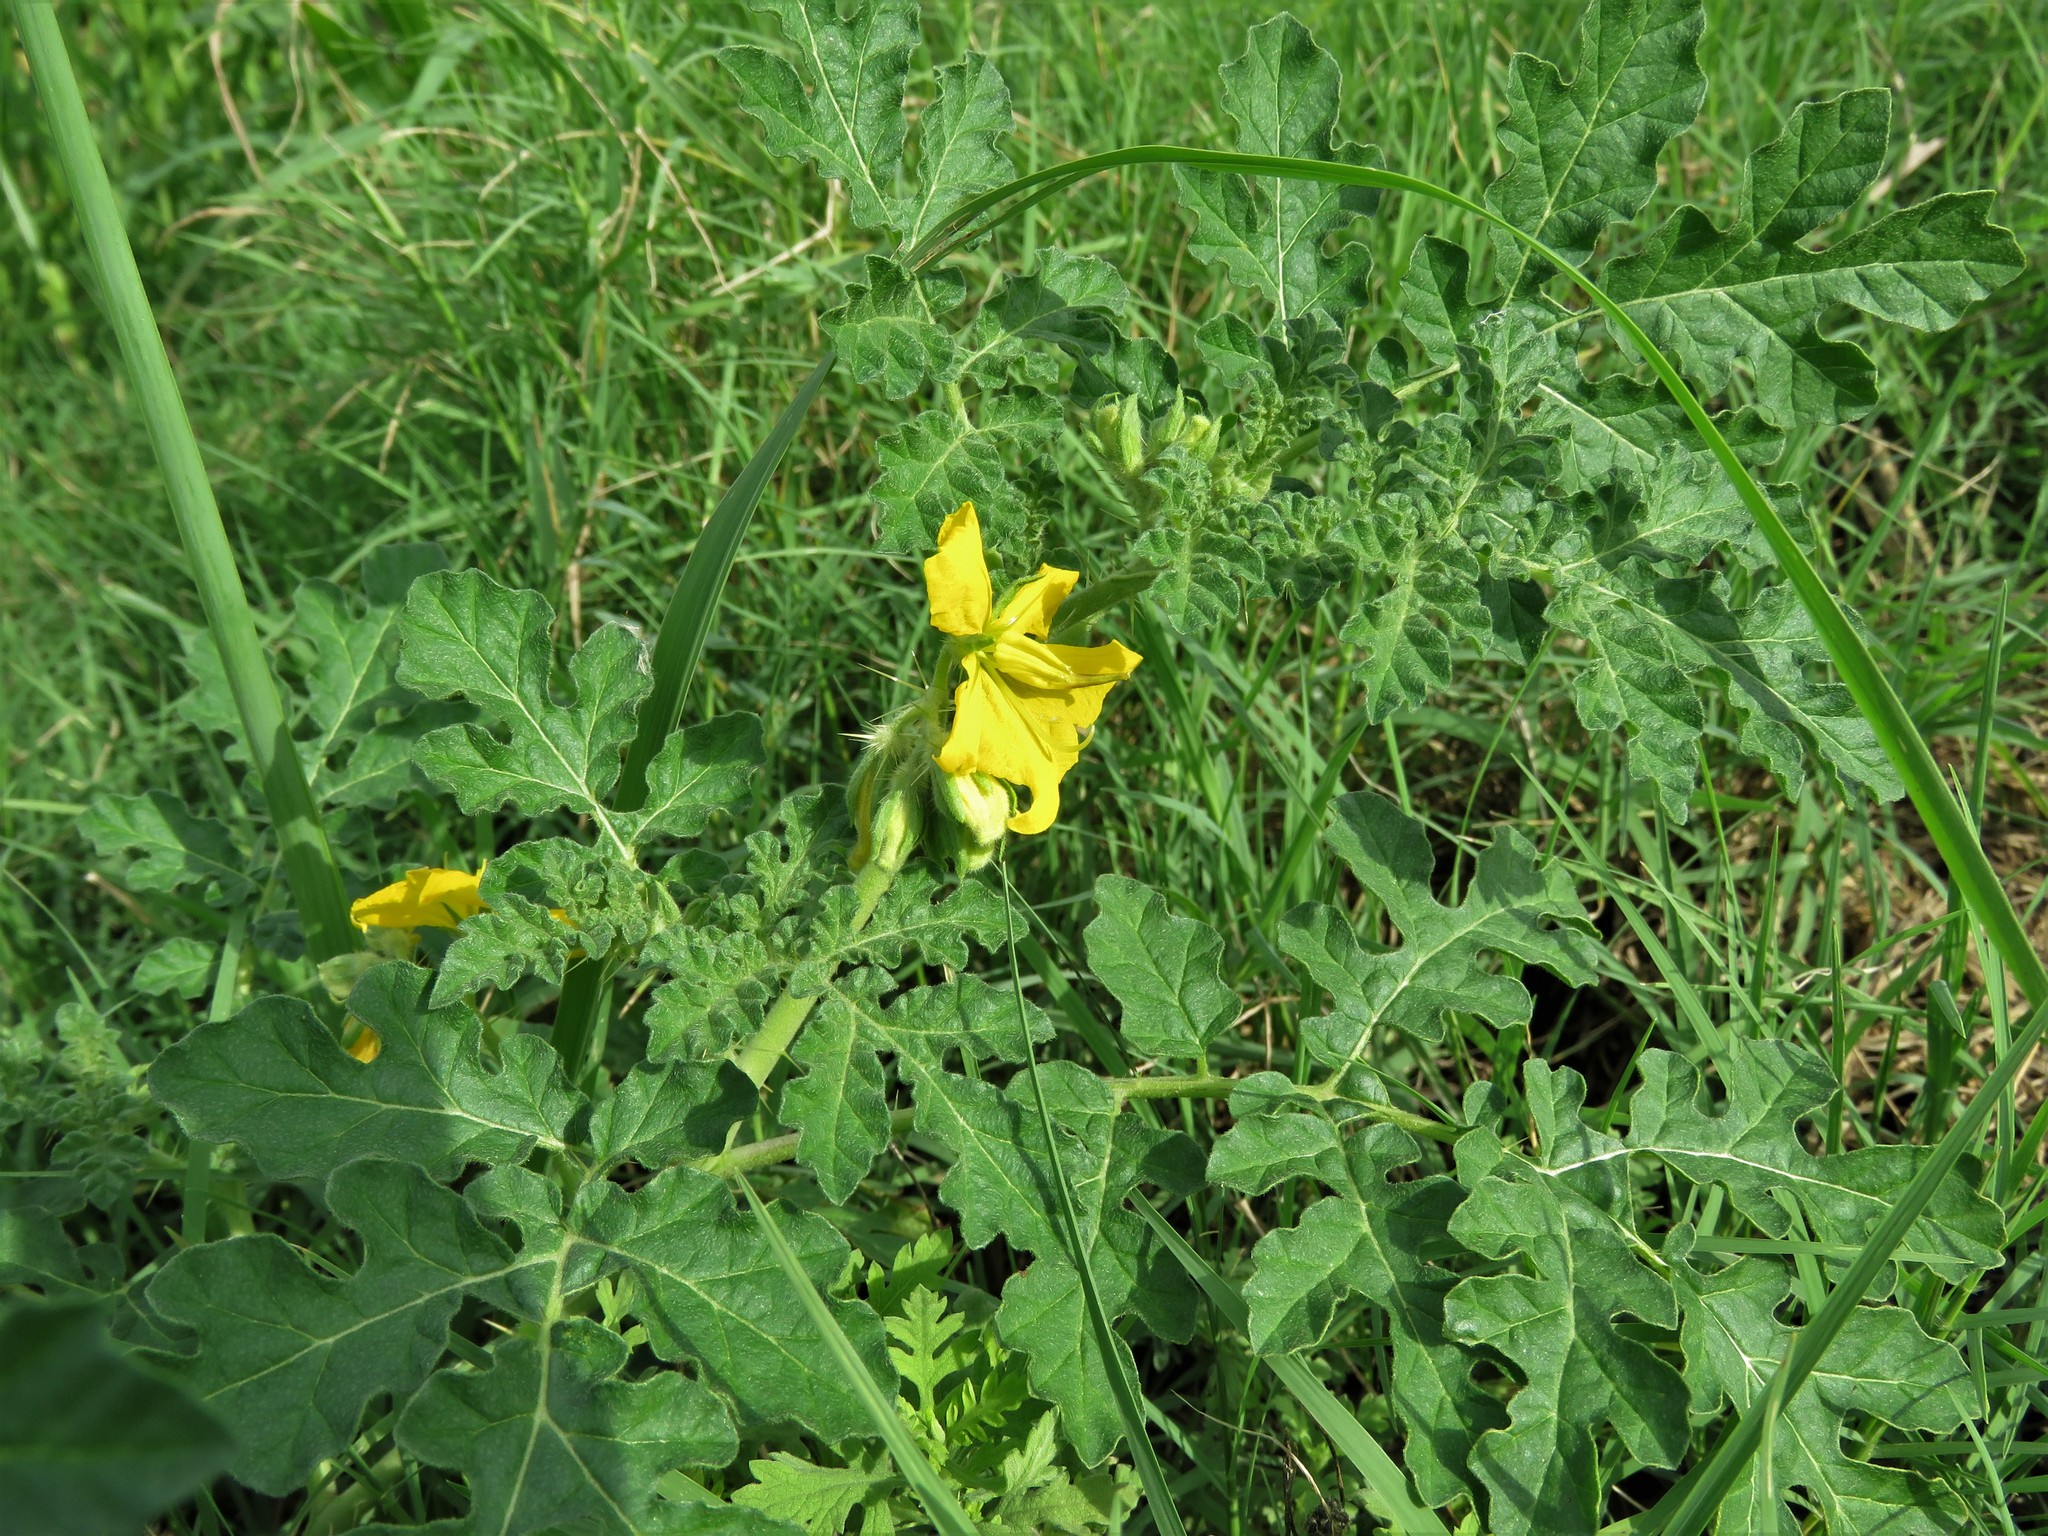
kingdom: Plantae
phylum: Tracheophyta
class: Magnoliopsida
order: Solanales
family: Solanaceae
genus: Solanum
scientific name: Solanum angustifolium
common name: Buffalobur nightshade
